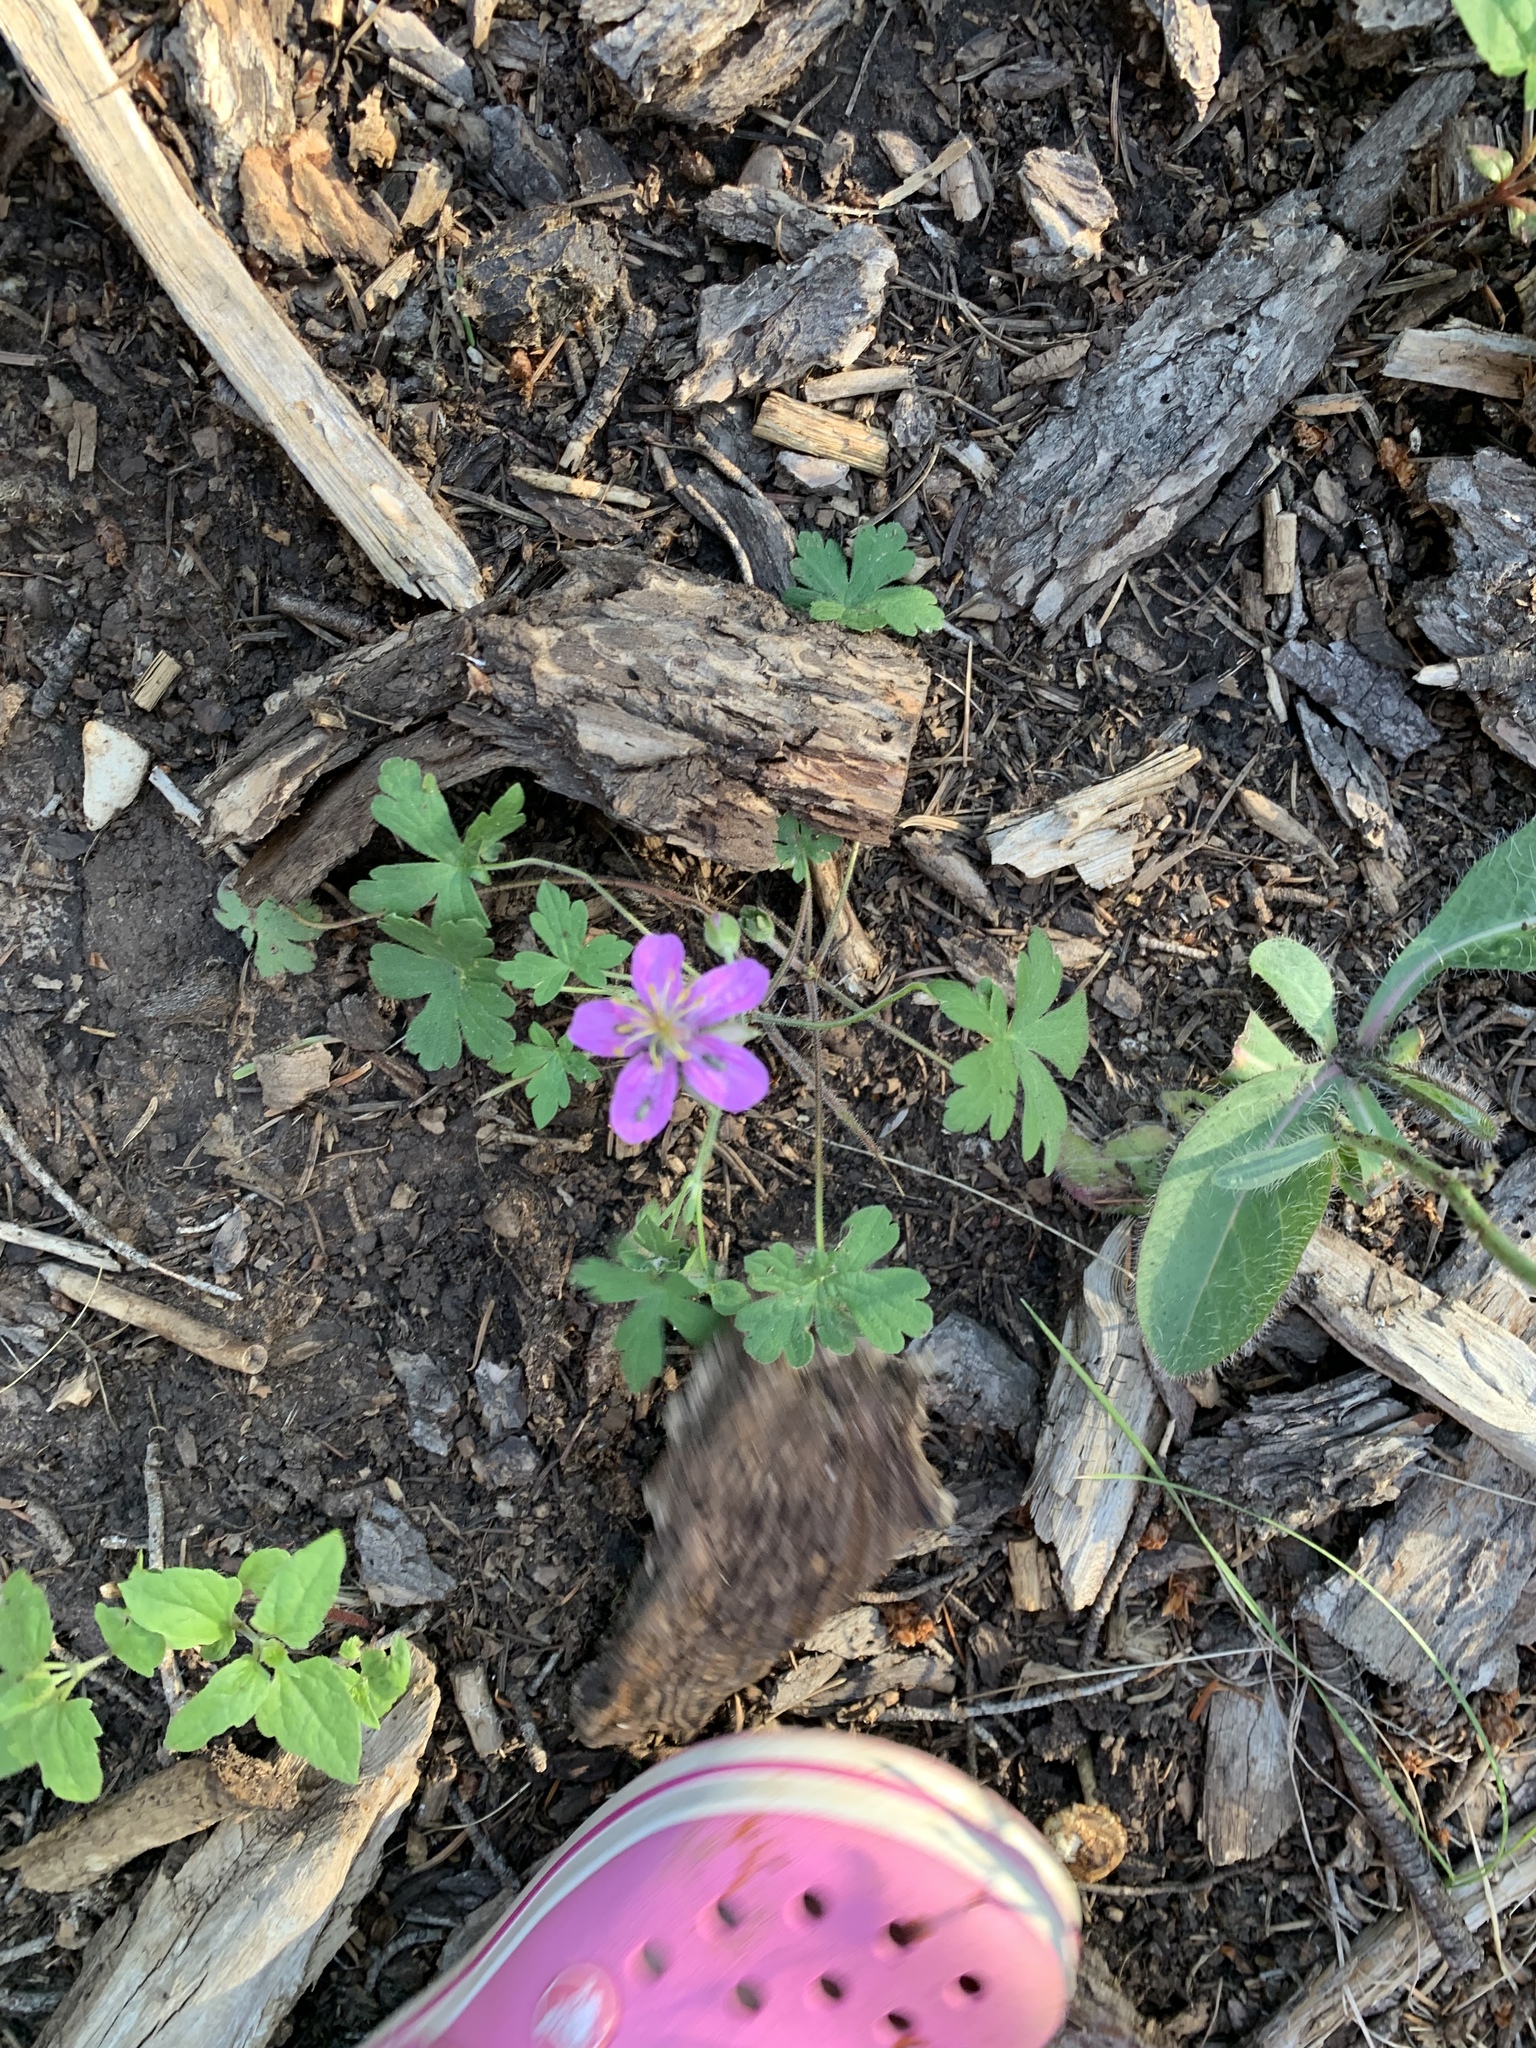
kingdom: Plantae
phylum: Tracheophyta
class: Magnoliopsida
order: Geraniales
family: Geraniaceae
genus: Geranium
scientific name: Geranium caespitosum
